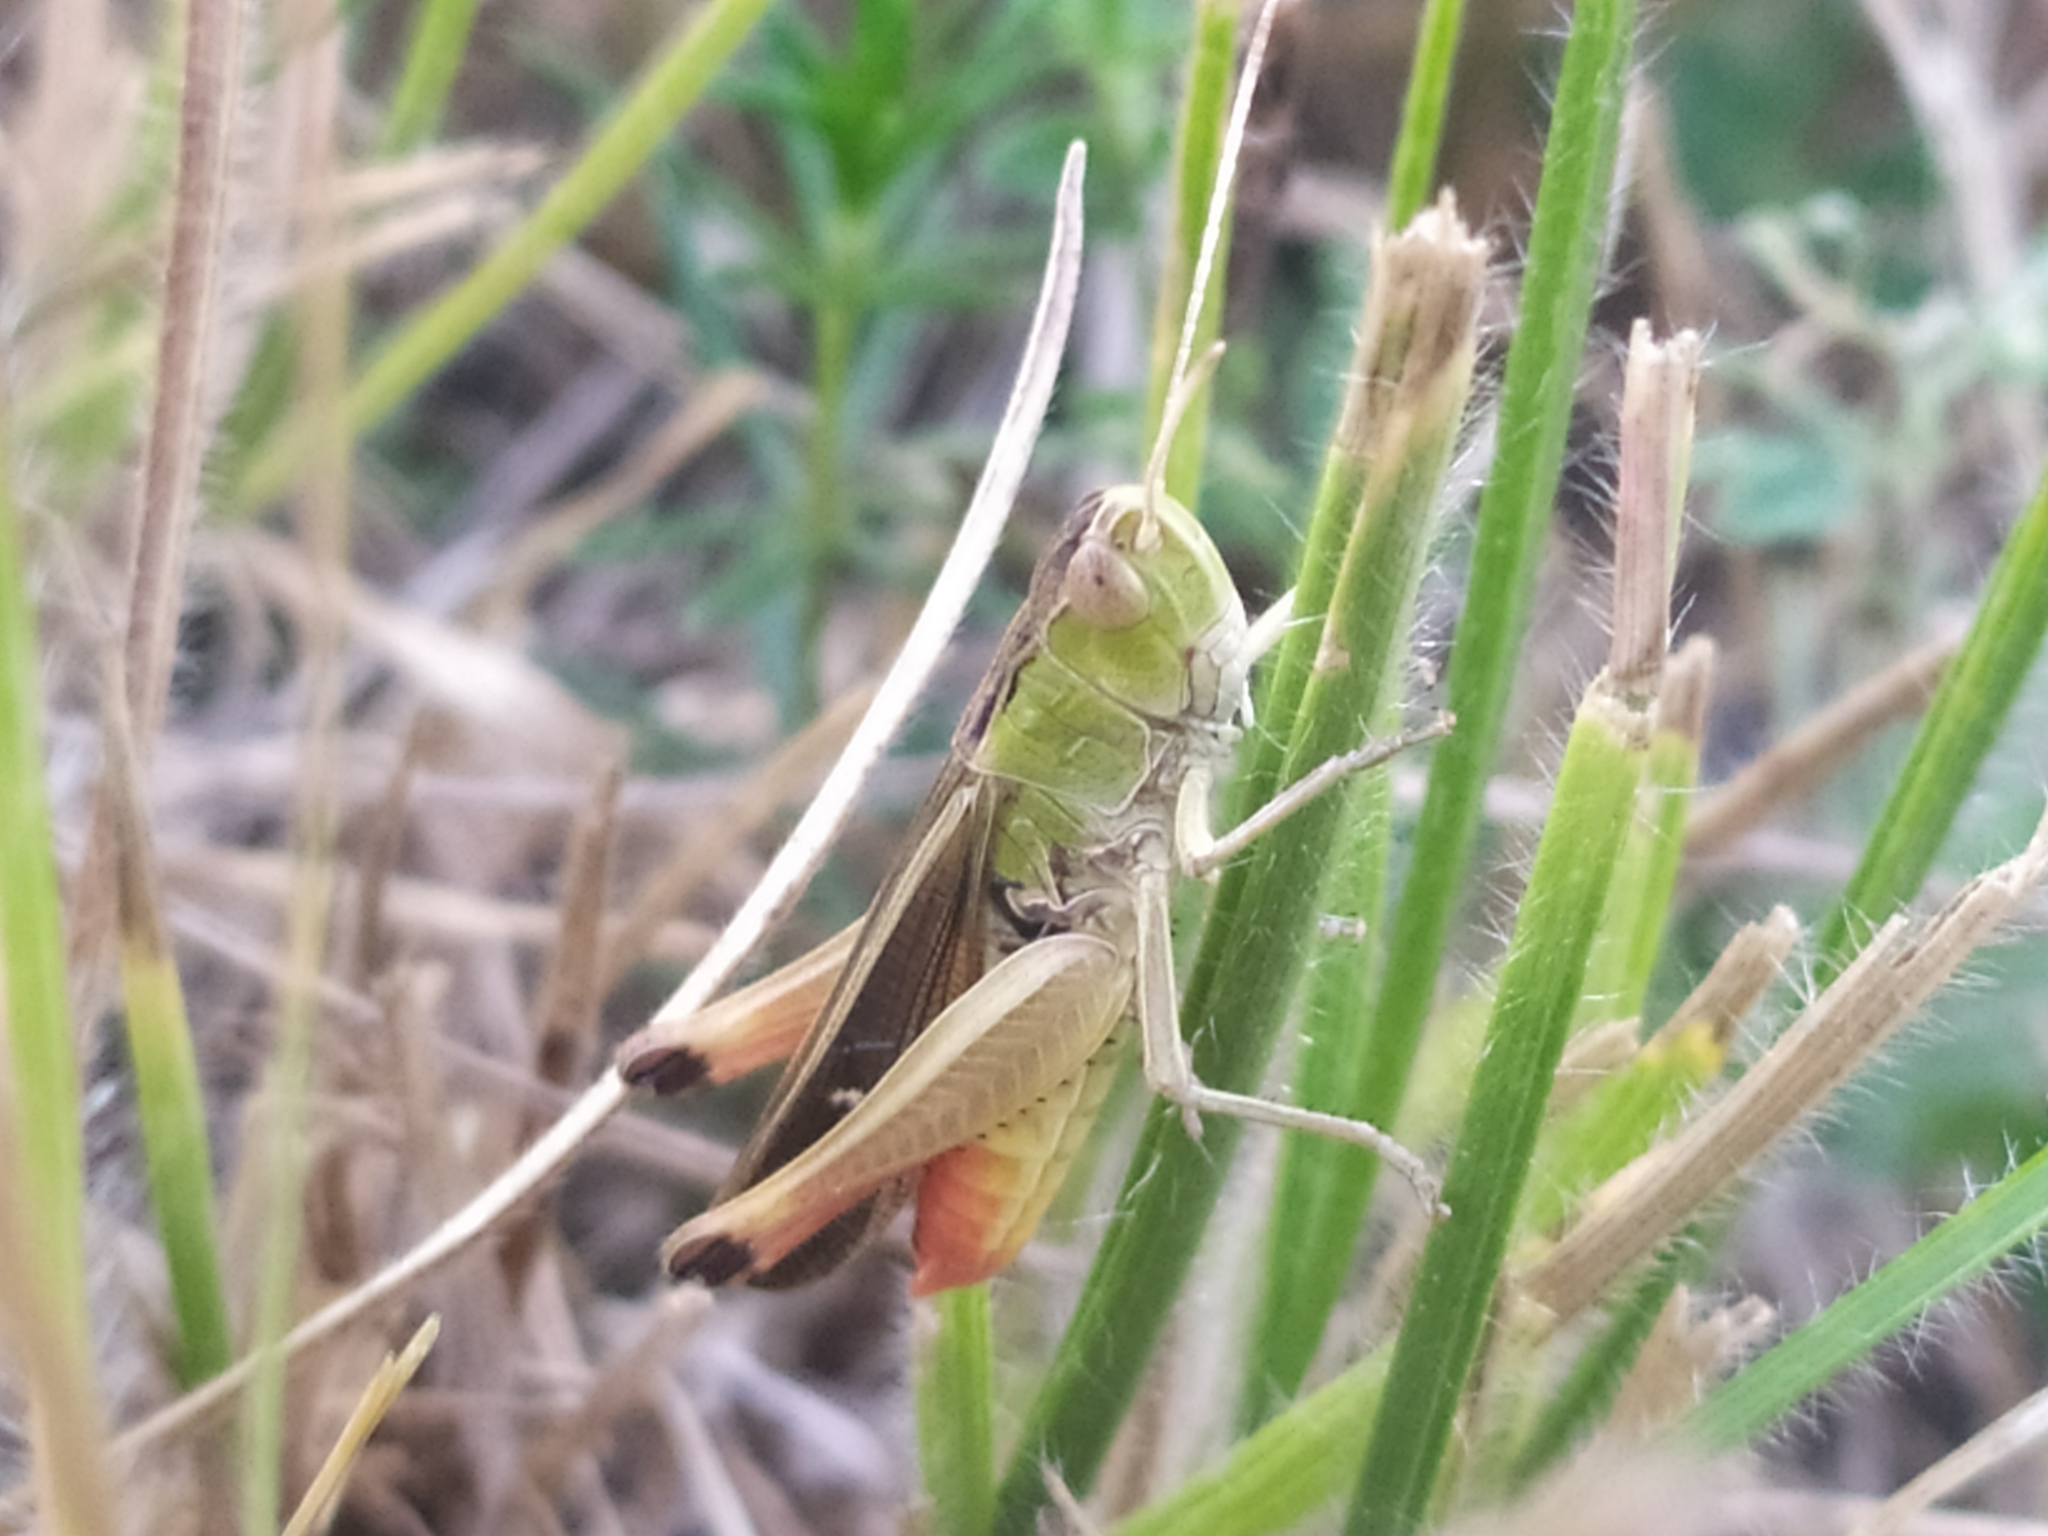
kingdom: Animalia
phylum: Arthropoda
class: Insecta
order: Orthoptera
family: Acrididae
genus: Stenobothrus
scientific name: Stenobothrus lineatus
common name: Stripe-winged grasshopper
